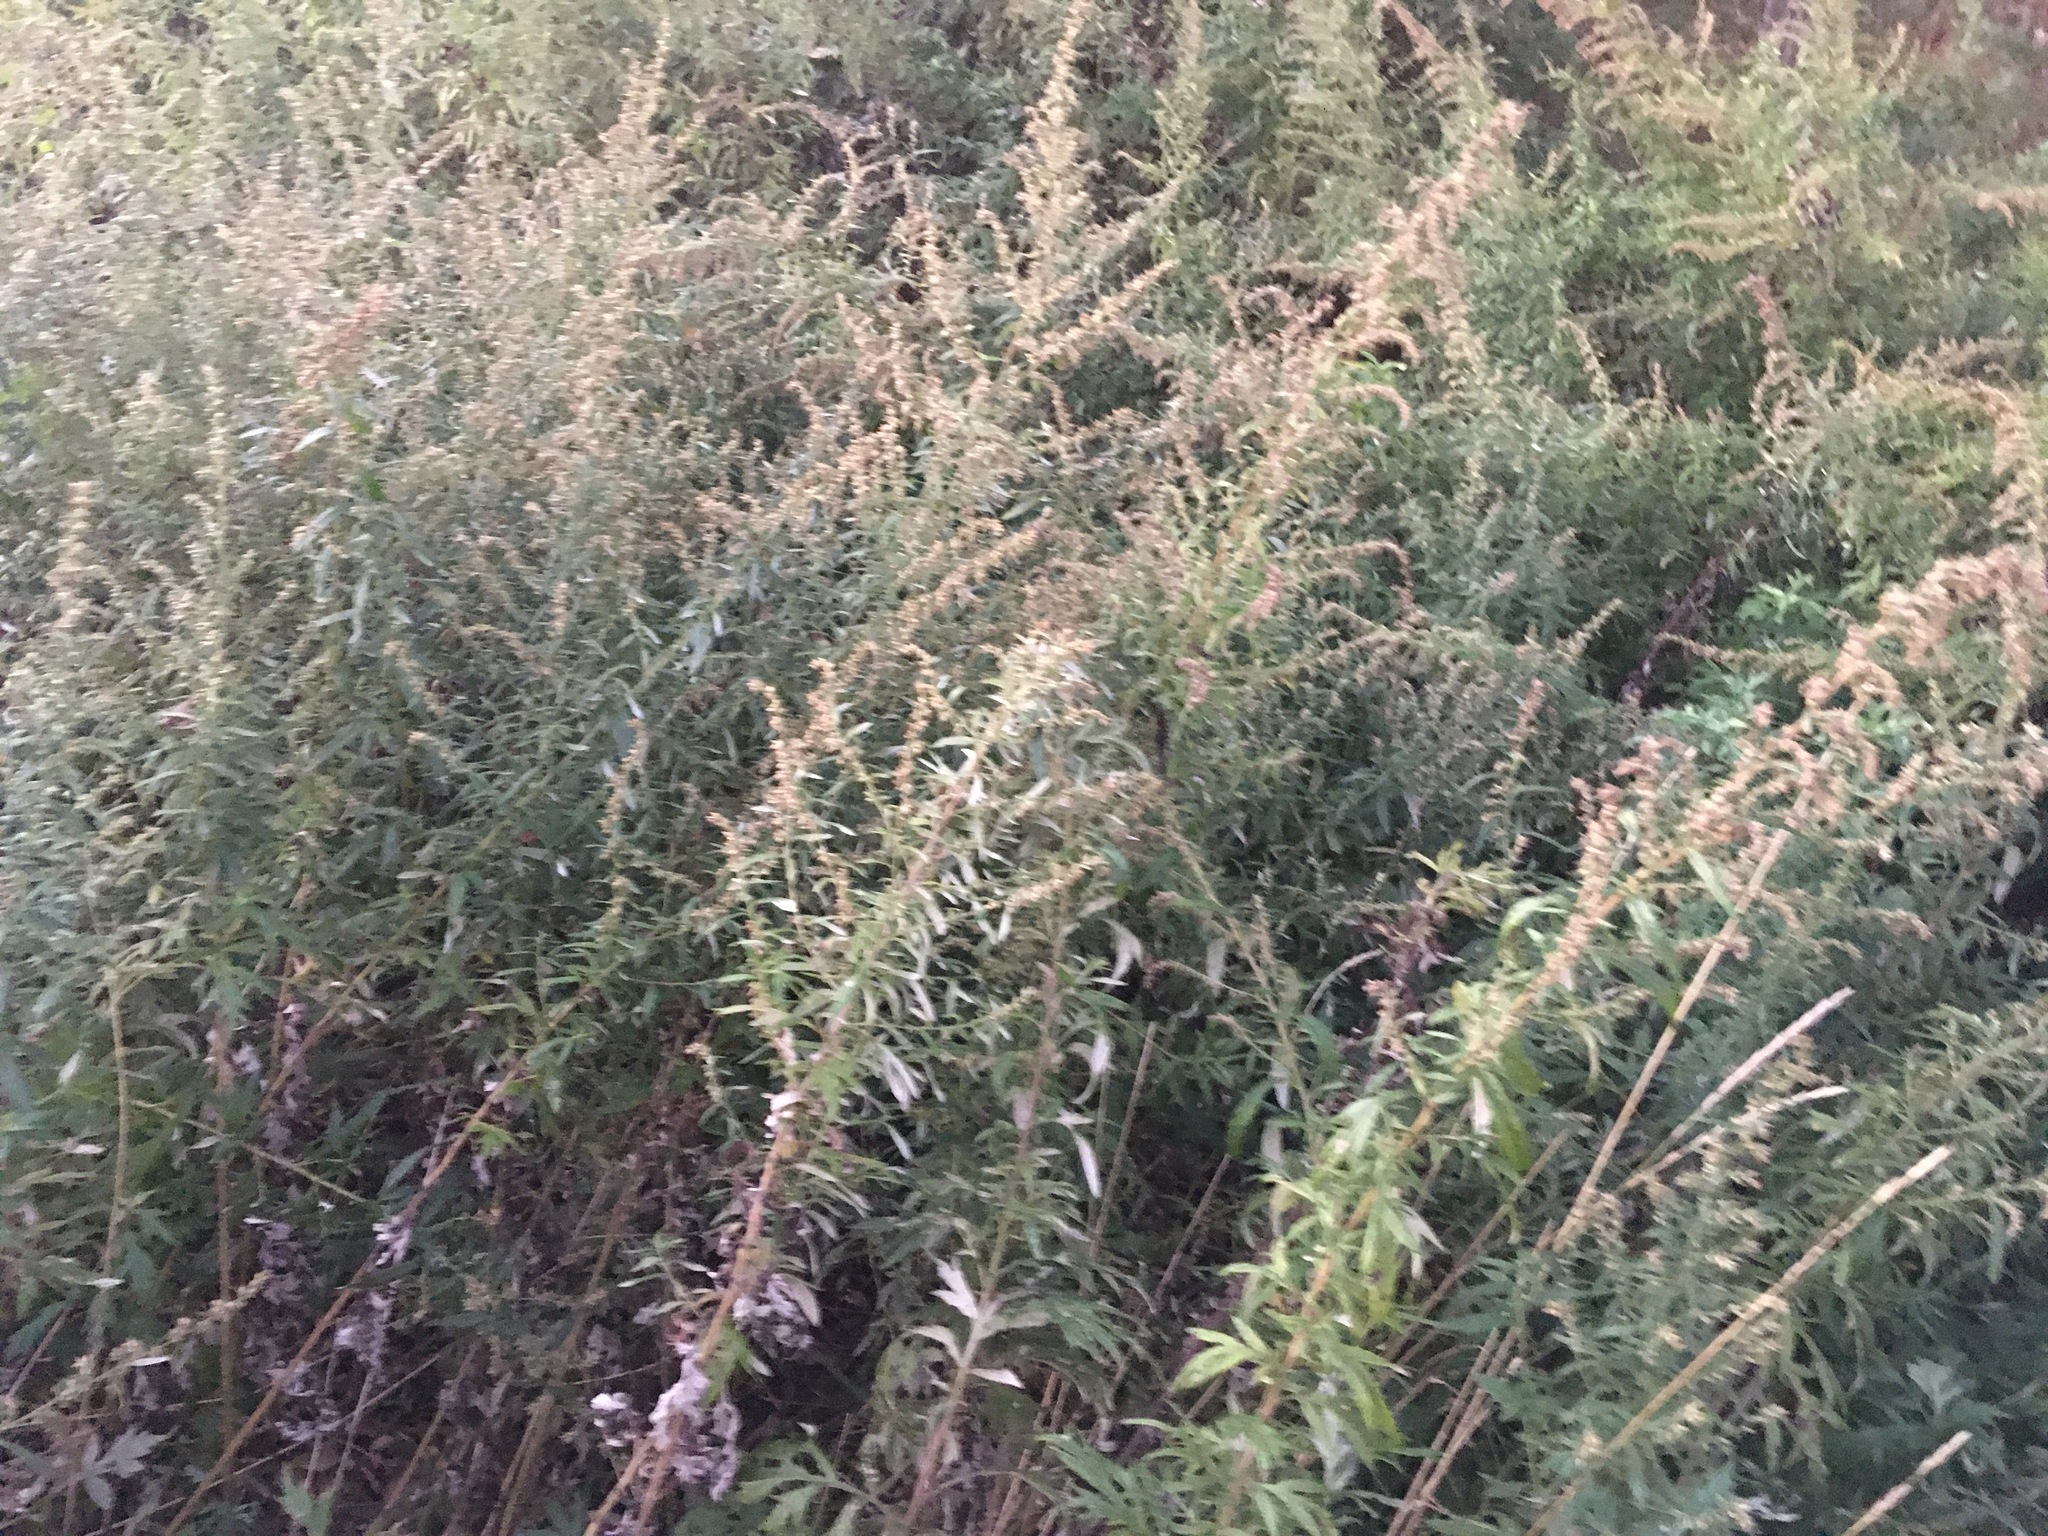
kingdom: Plantae
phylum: Tracheophyta
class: Magnoliopsida
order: Asterales
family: Asteraceae
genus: Artemisia
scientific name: Artemisia vulgaris
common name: Mugwort
